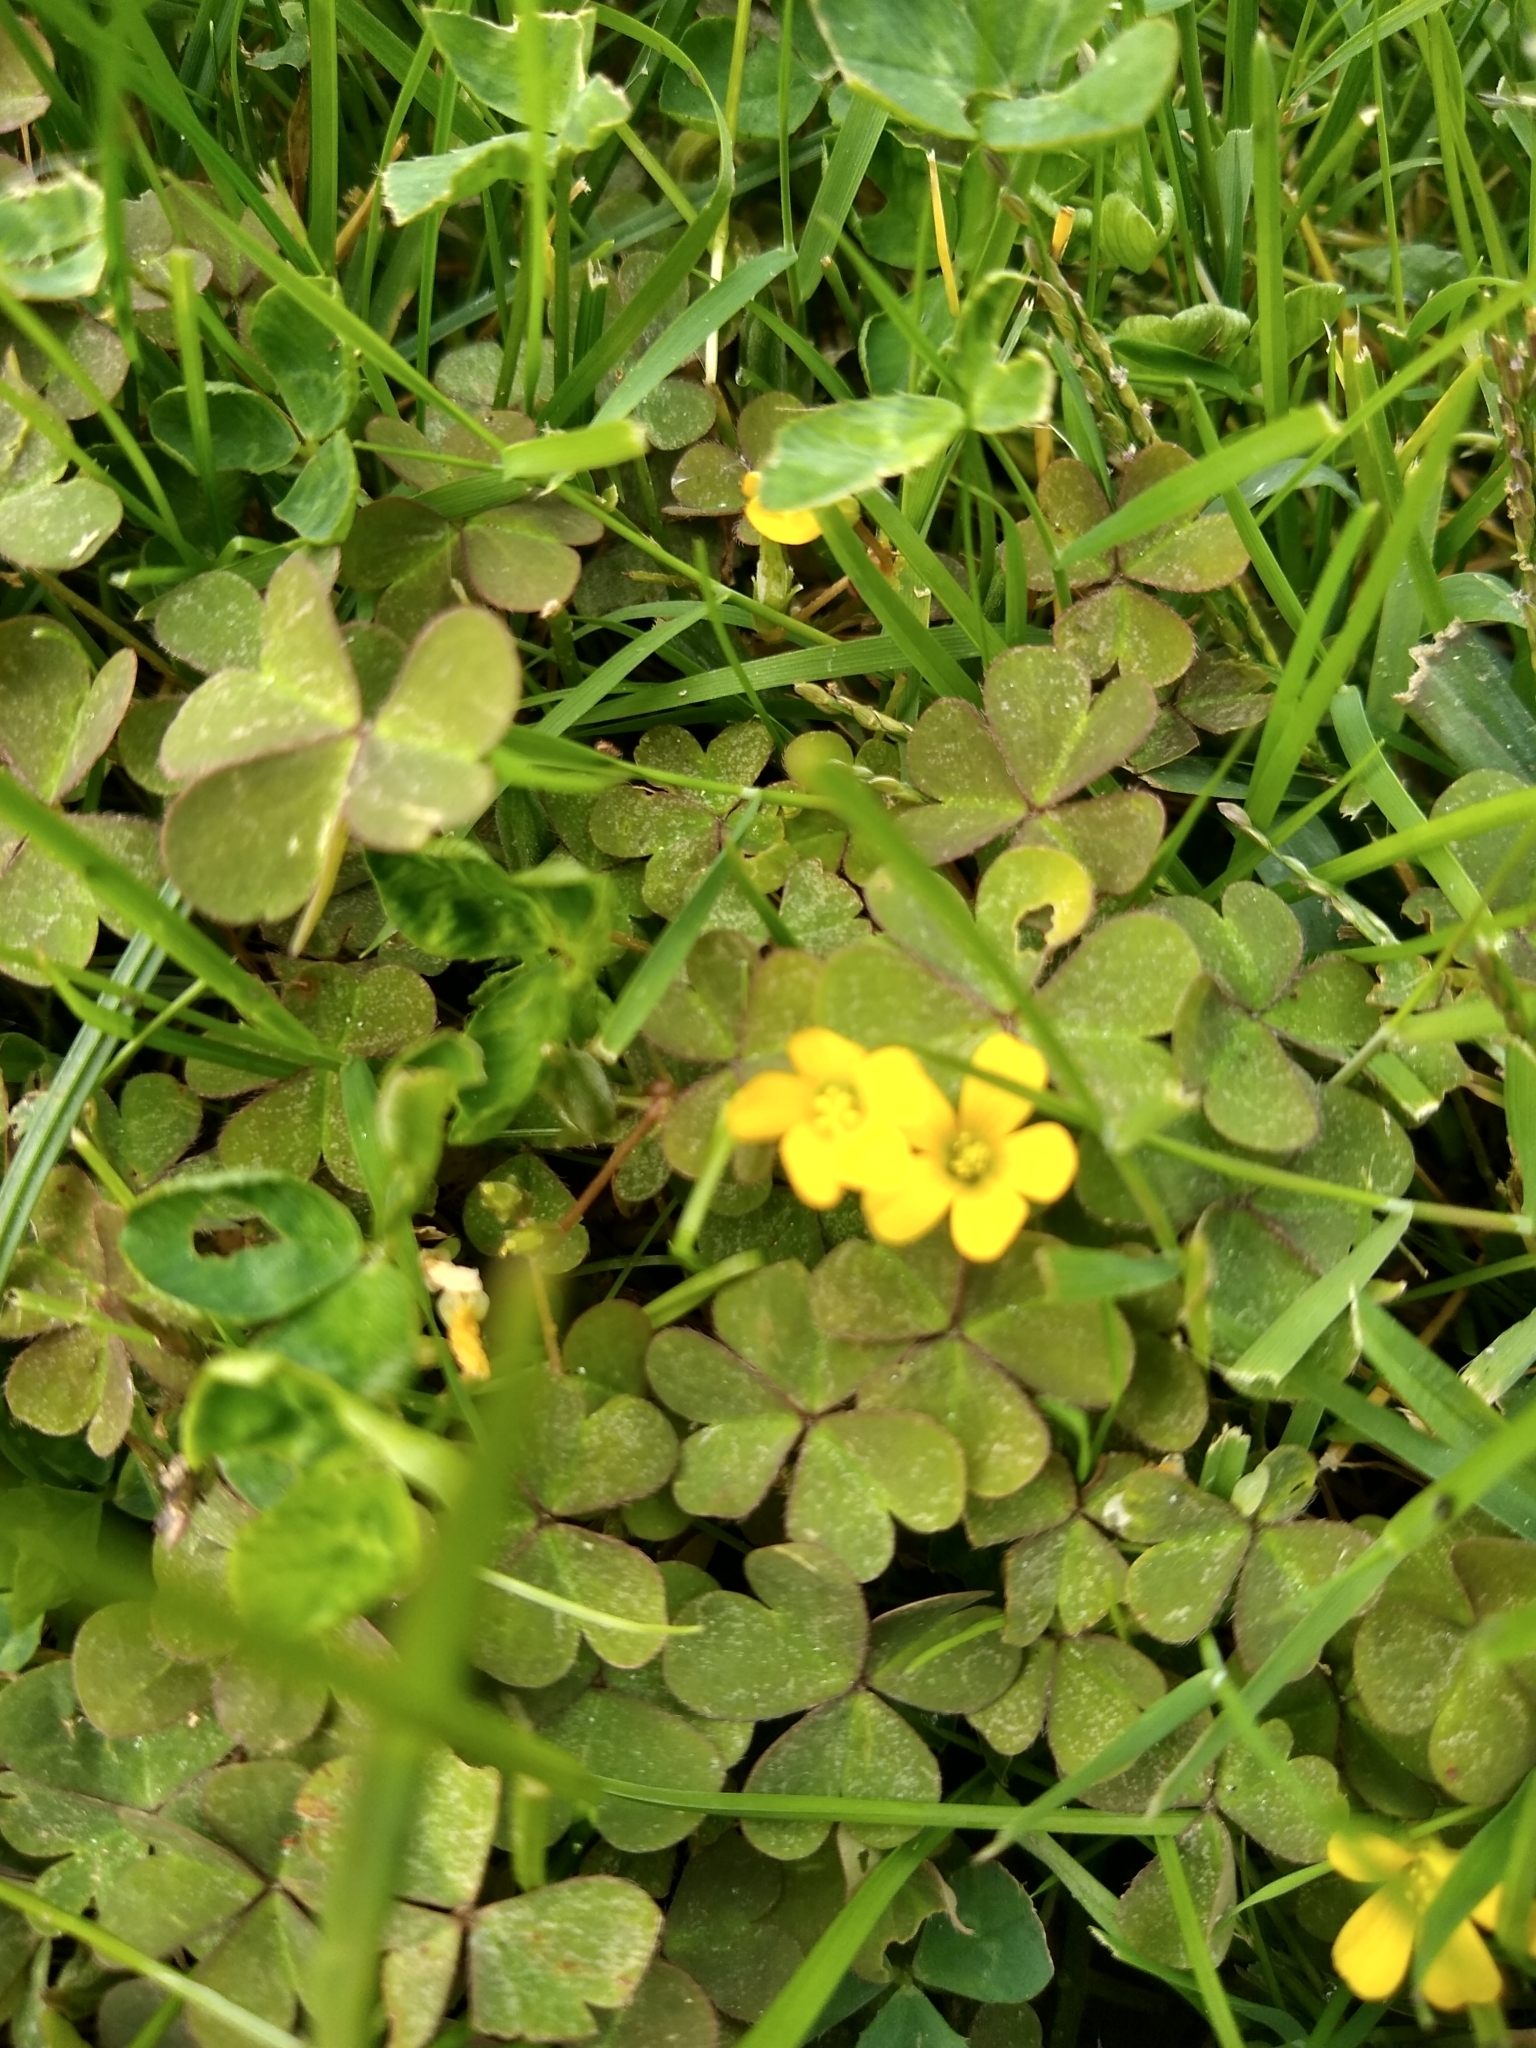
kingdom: Plantae
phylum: Tracheophyta
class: Magnoliopsida
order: Oxalidales
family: Oxalidaceae
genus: Oxalis
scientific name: Oxalis corniculata
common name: Procumbent yellow-sorrel
